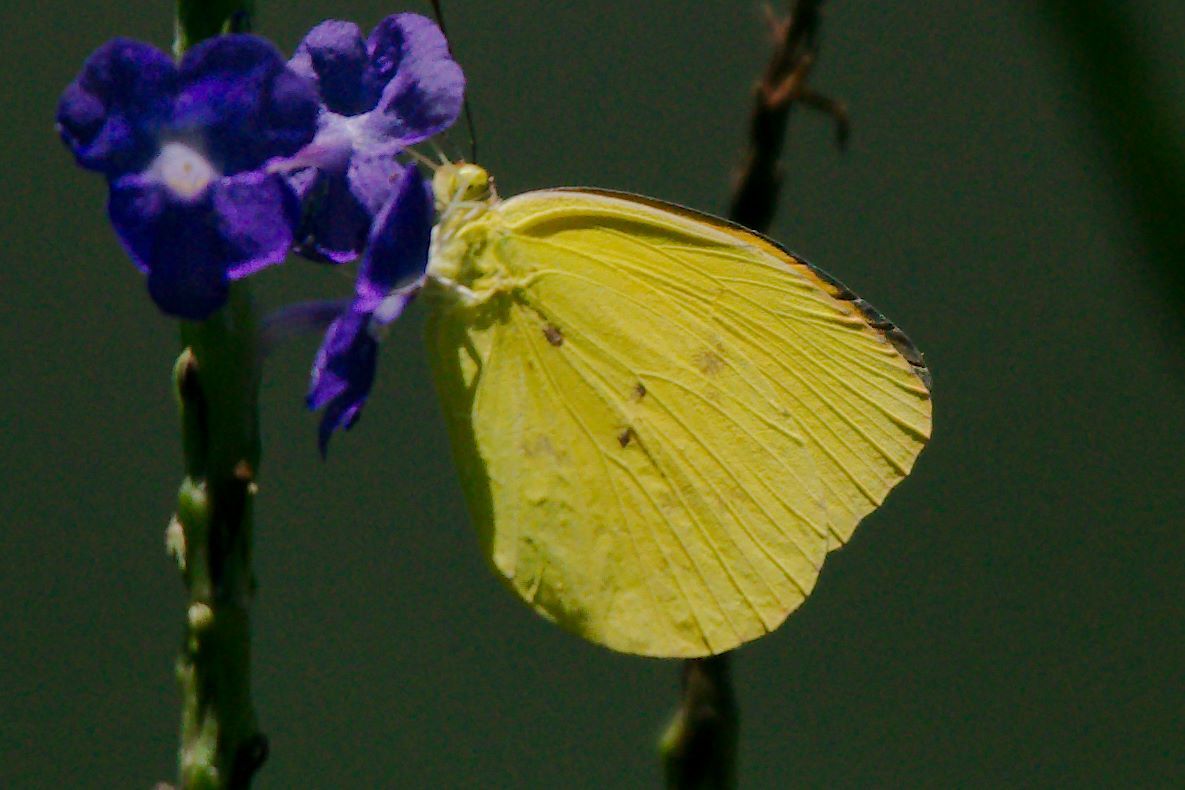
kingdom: Animalia
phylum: Arthropoda
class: Insecta
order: Lepidoptera
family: Pieridae
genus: Pyrisitia
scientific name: Pyrisitia dina
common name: Dina yellow
